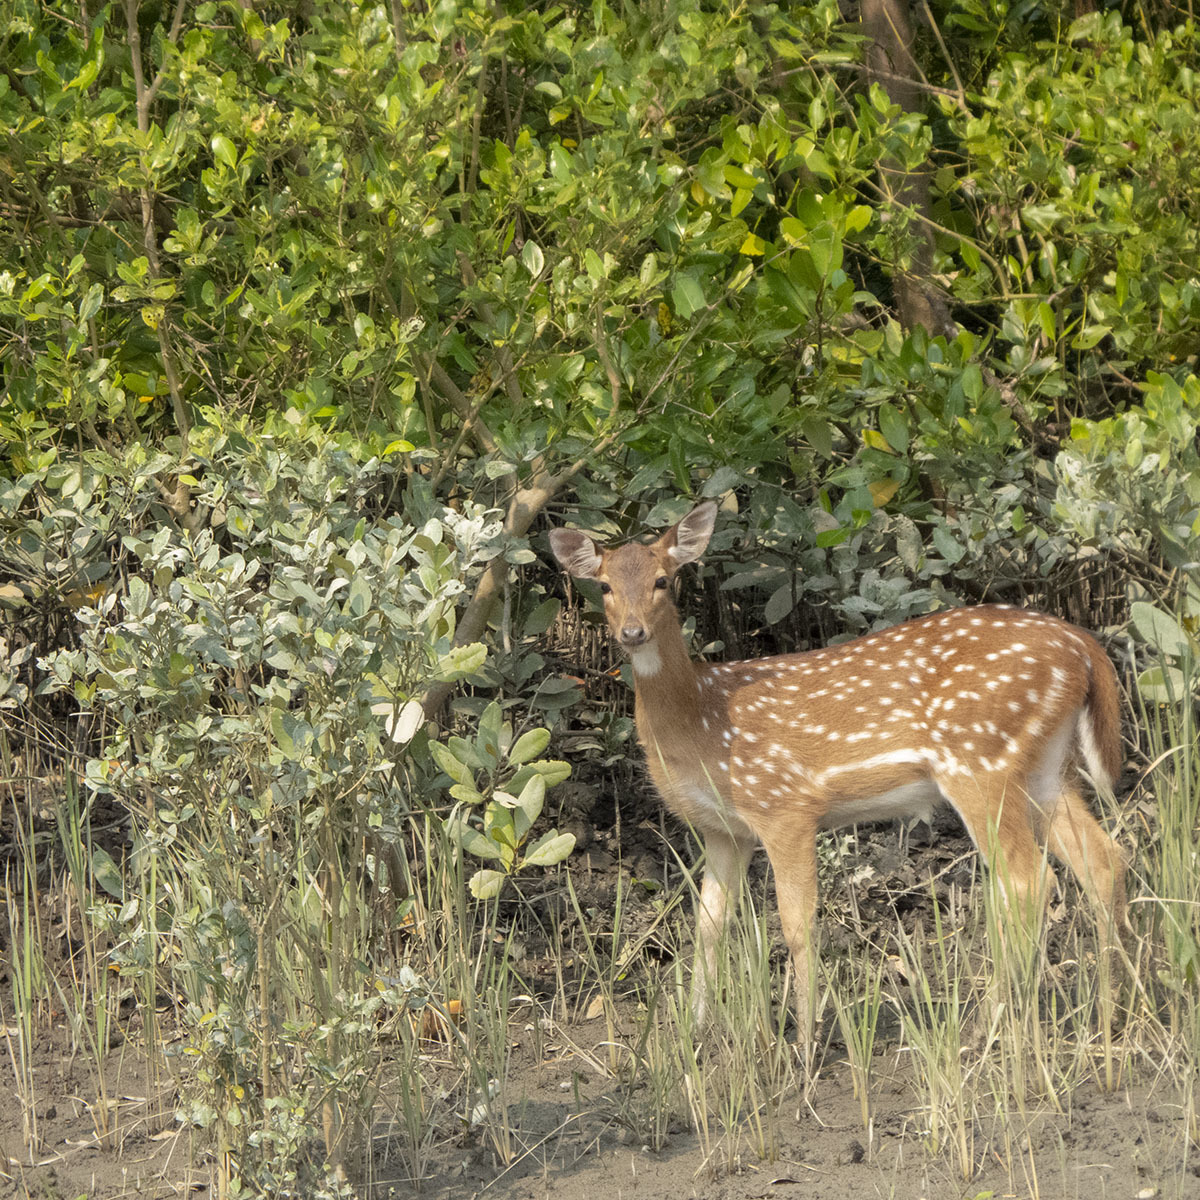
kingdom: Animalia
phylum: Chordata
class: Mammalia
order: Artiodactyla
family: Cervidae
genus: Axis
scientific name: Axis axis
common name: Chital
